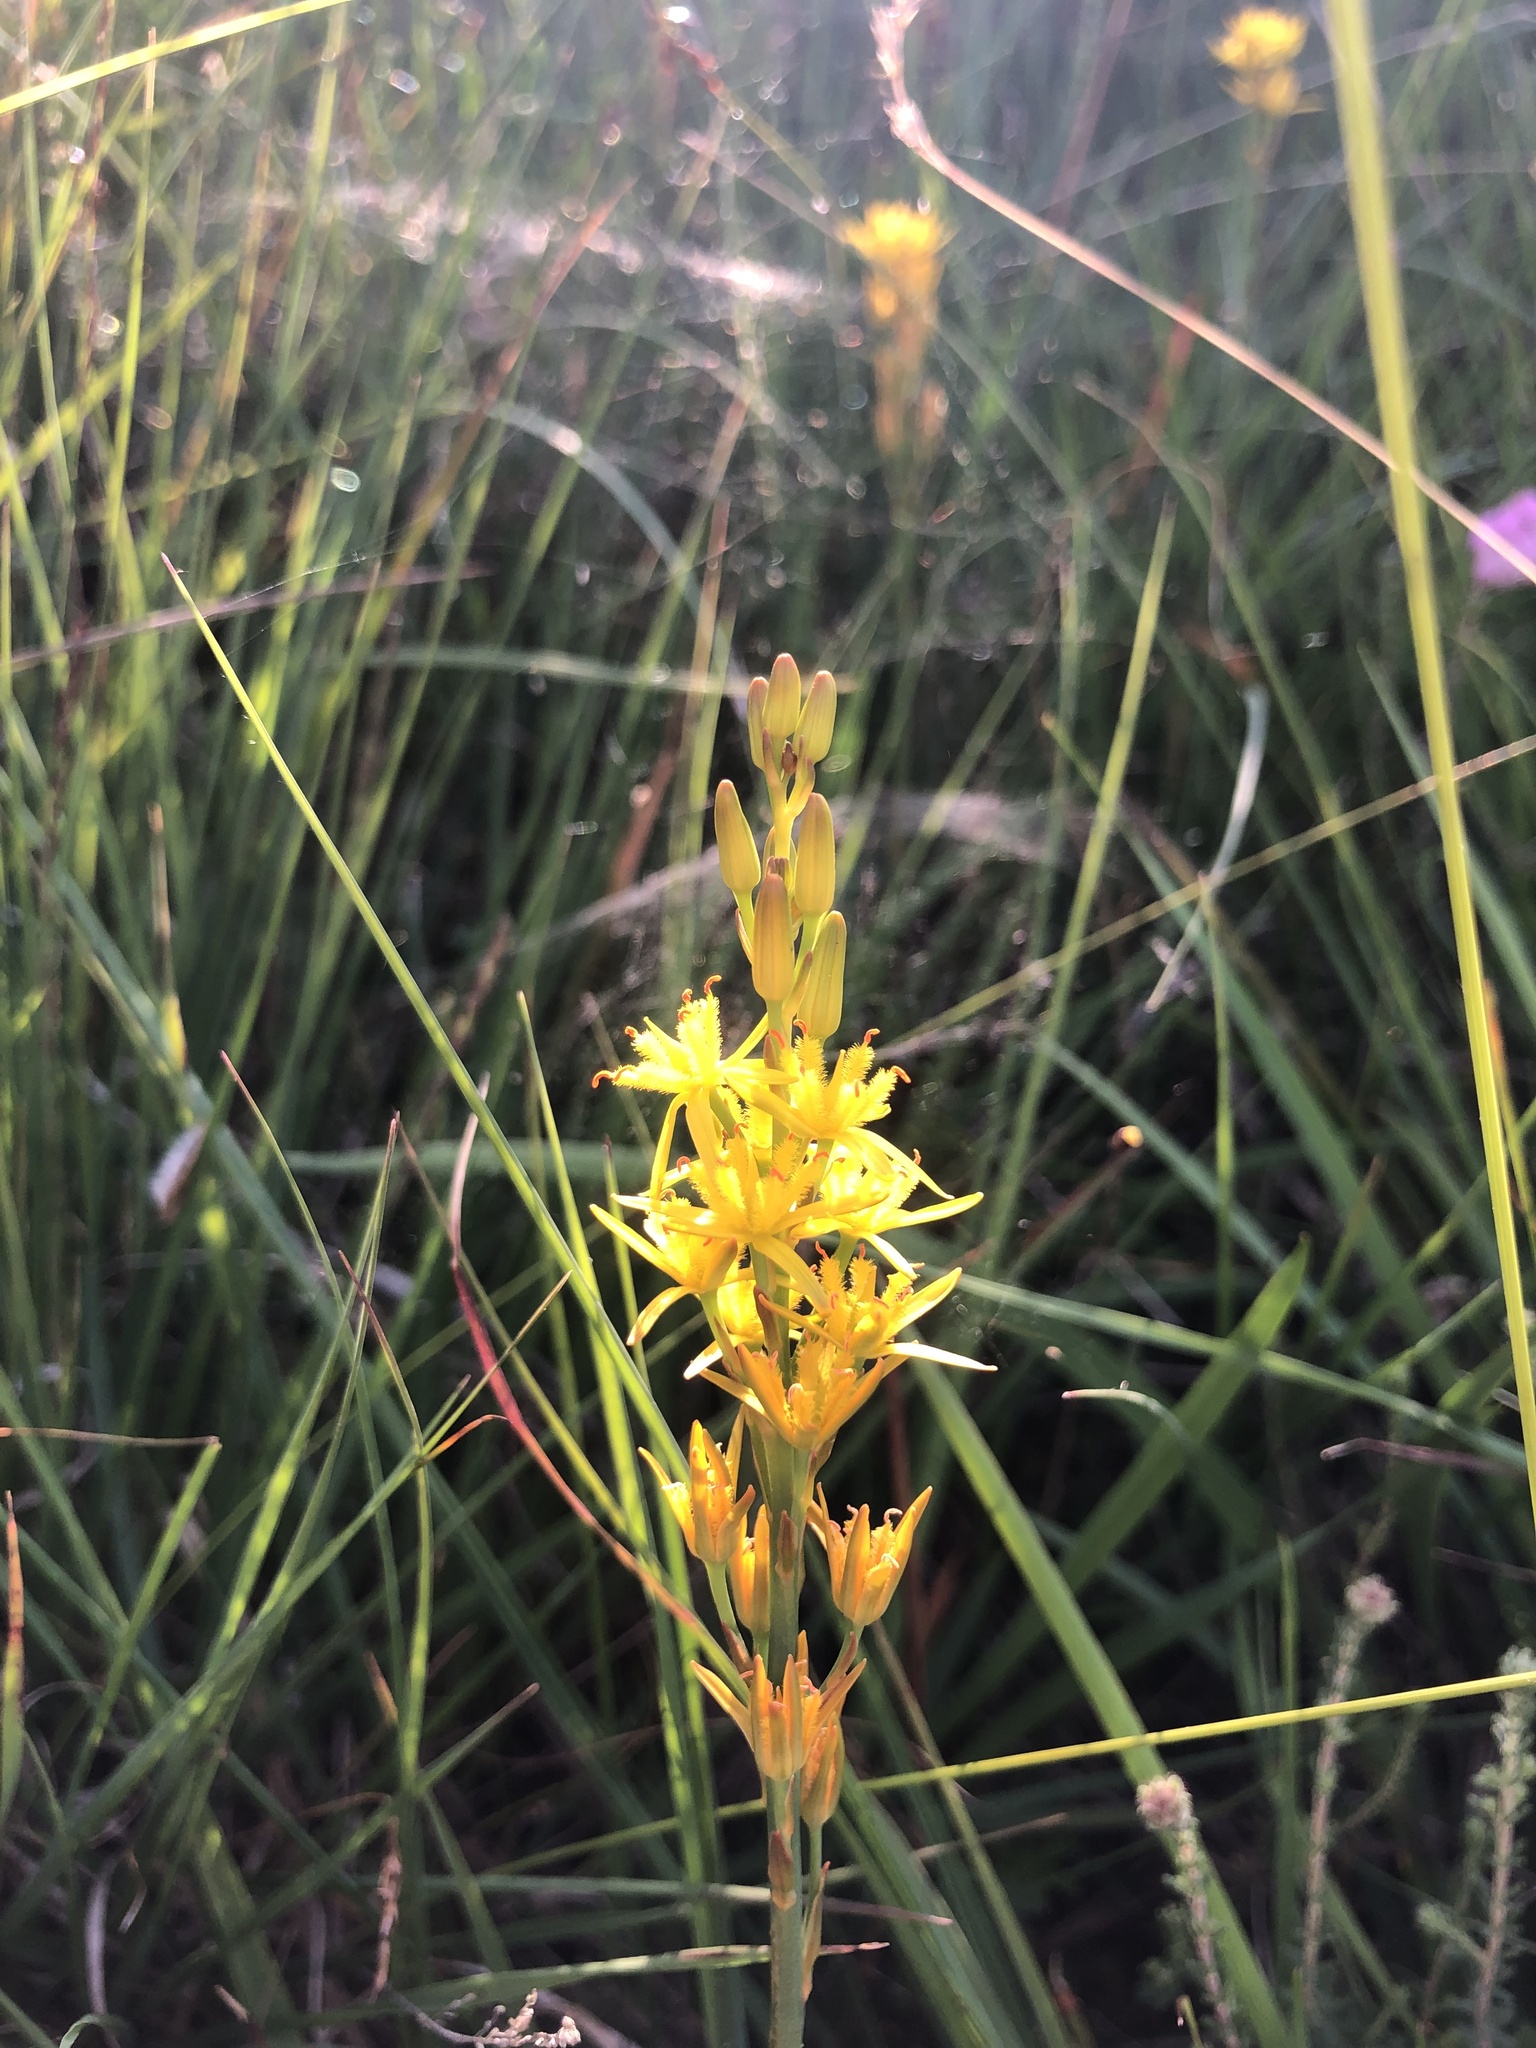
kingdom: Plantae
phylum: Tracheophyta
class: Liliopsida
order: Dioscoreales
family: Nartheciaceae
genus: Narthecium
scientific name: Narthecium ossifragum
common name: Bog asphodel
